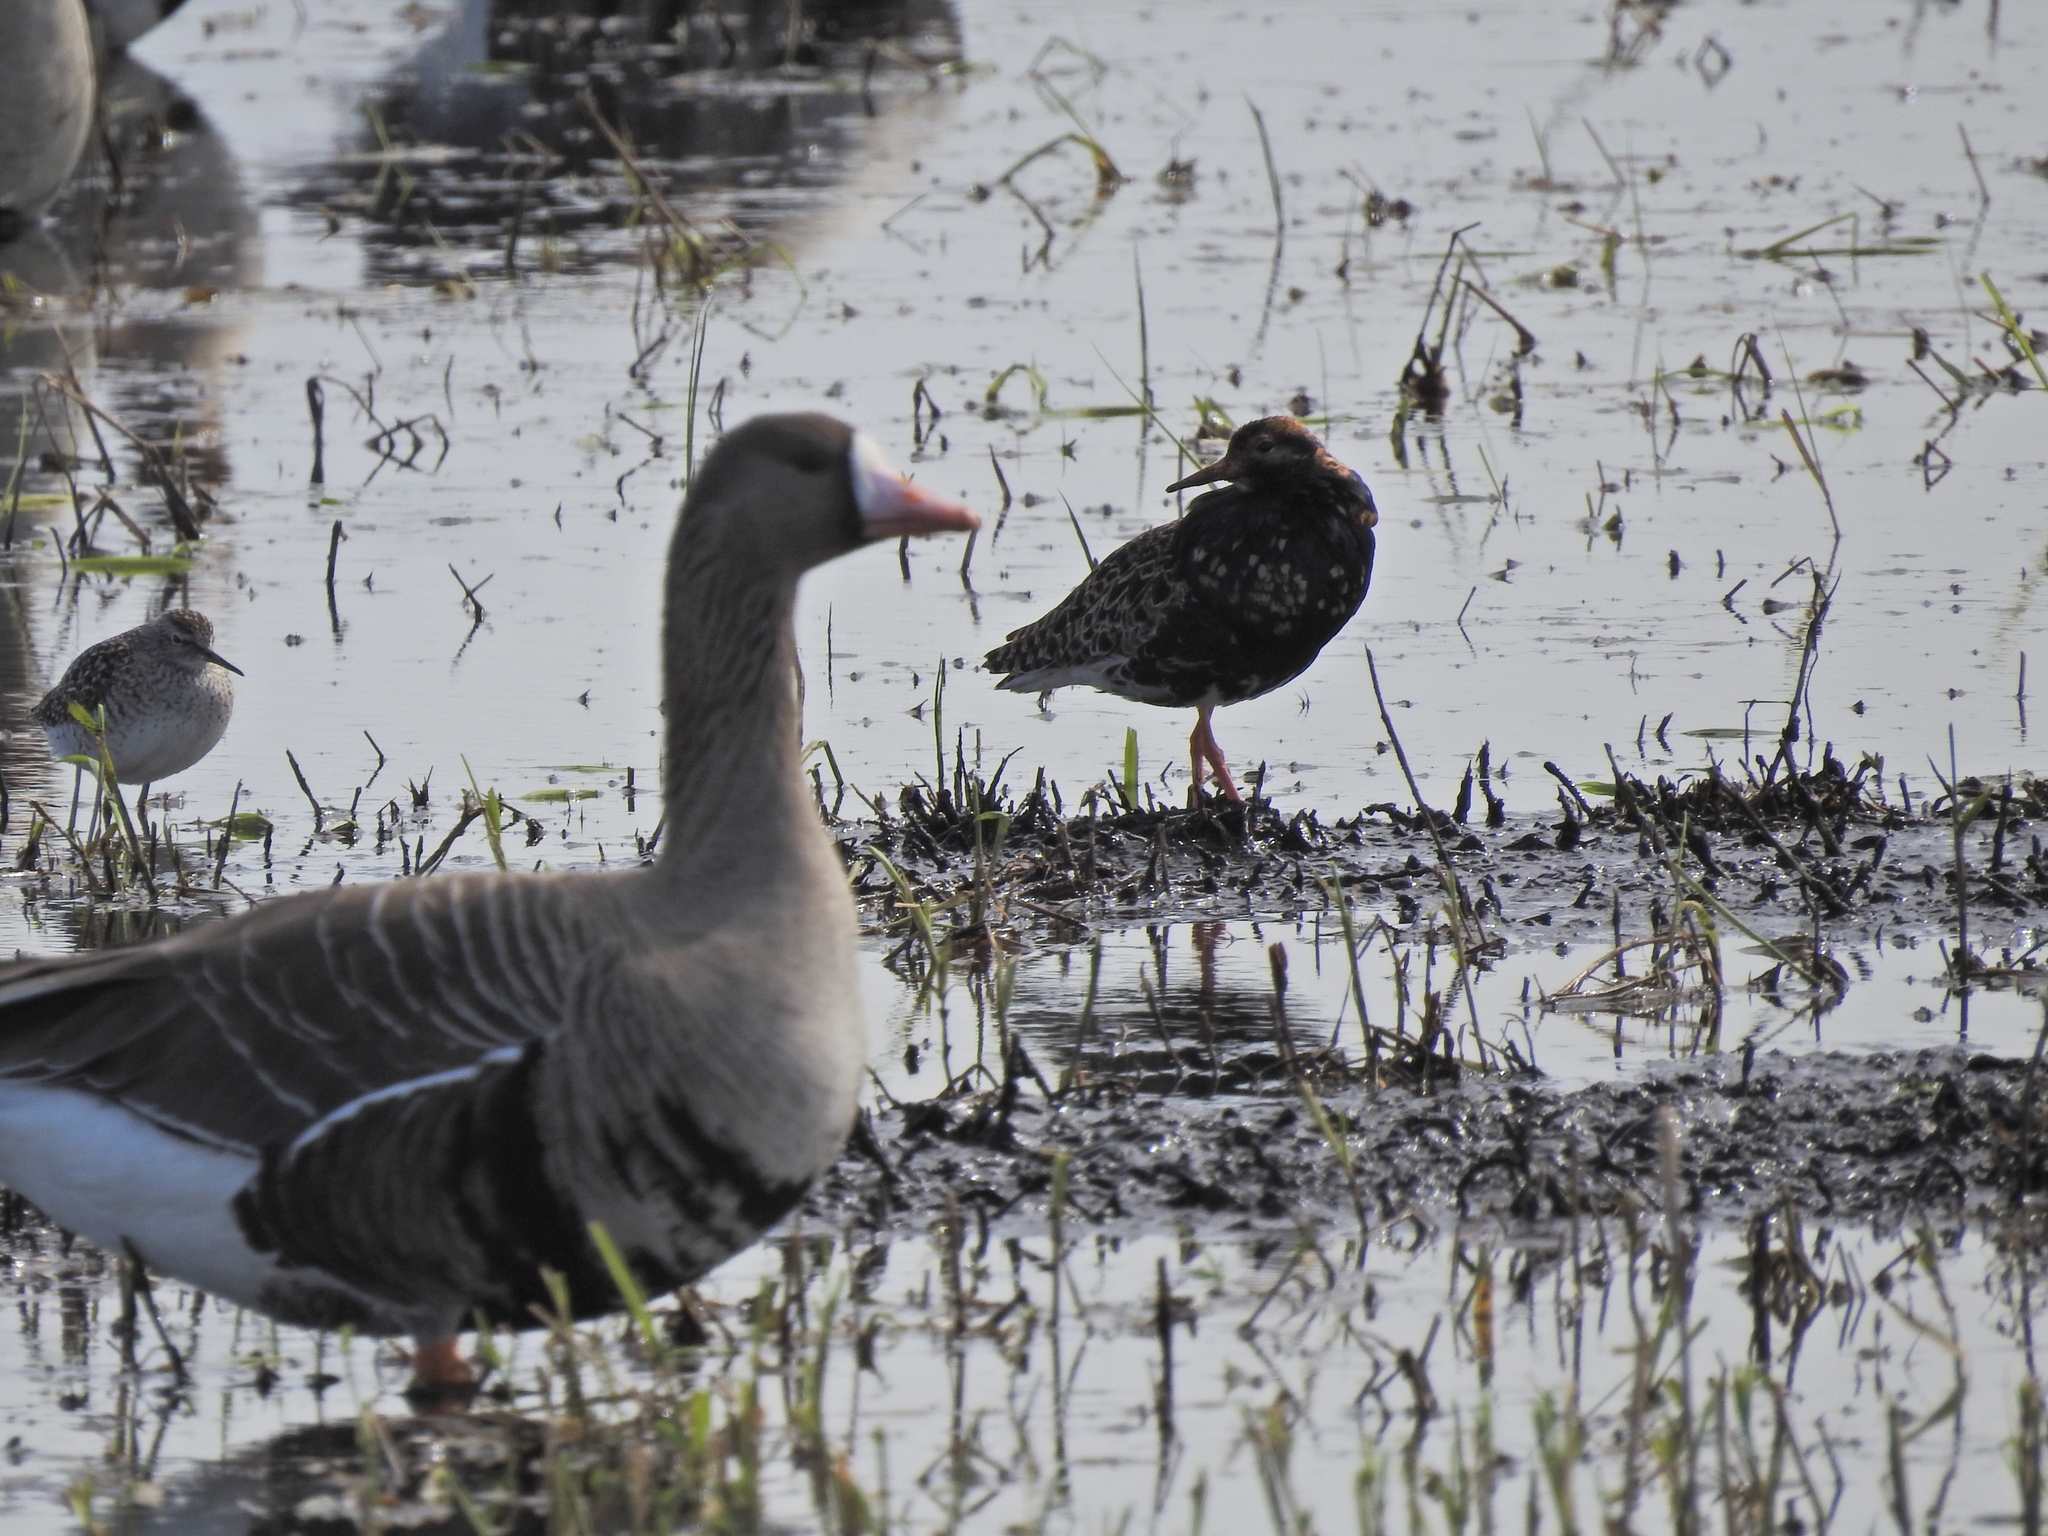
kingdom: Animalia
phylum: Chordata
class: Aves
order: Charadriiformes
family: Scolopacidae
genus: Tringa
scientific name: Tringa glareola
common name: Wood sandpiper
